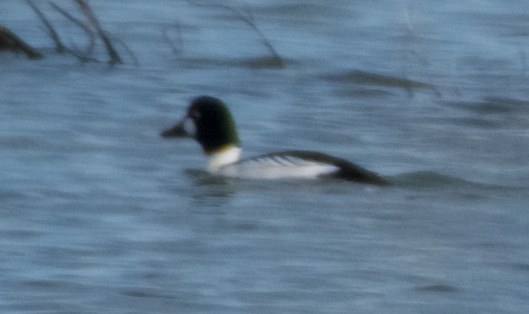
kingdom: Animalia
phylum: Chordata
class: Aves
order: Anseriformes
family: Anatidae
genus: Bucephala
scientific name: Bucephala clangula
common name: Common goldeneye
